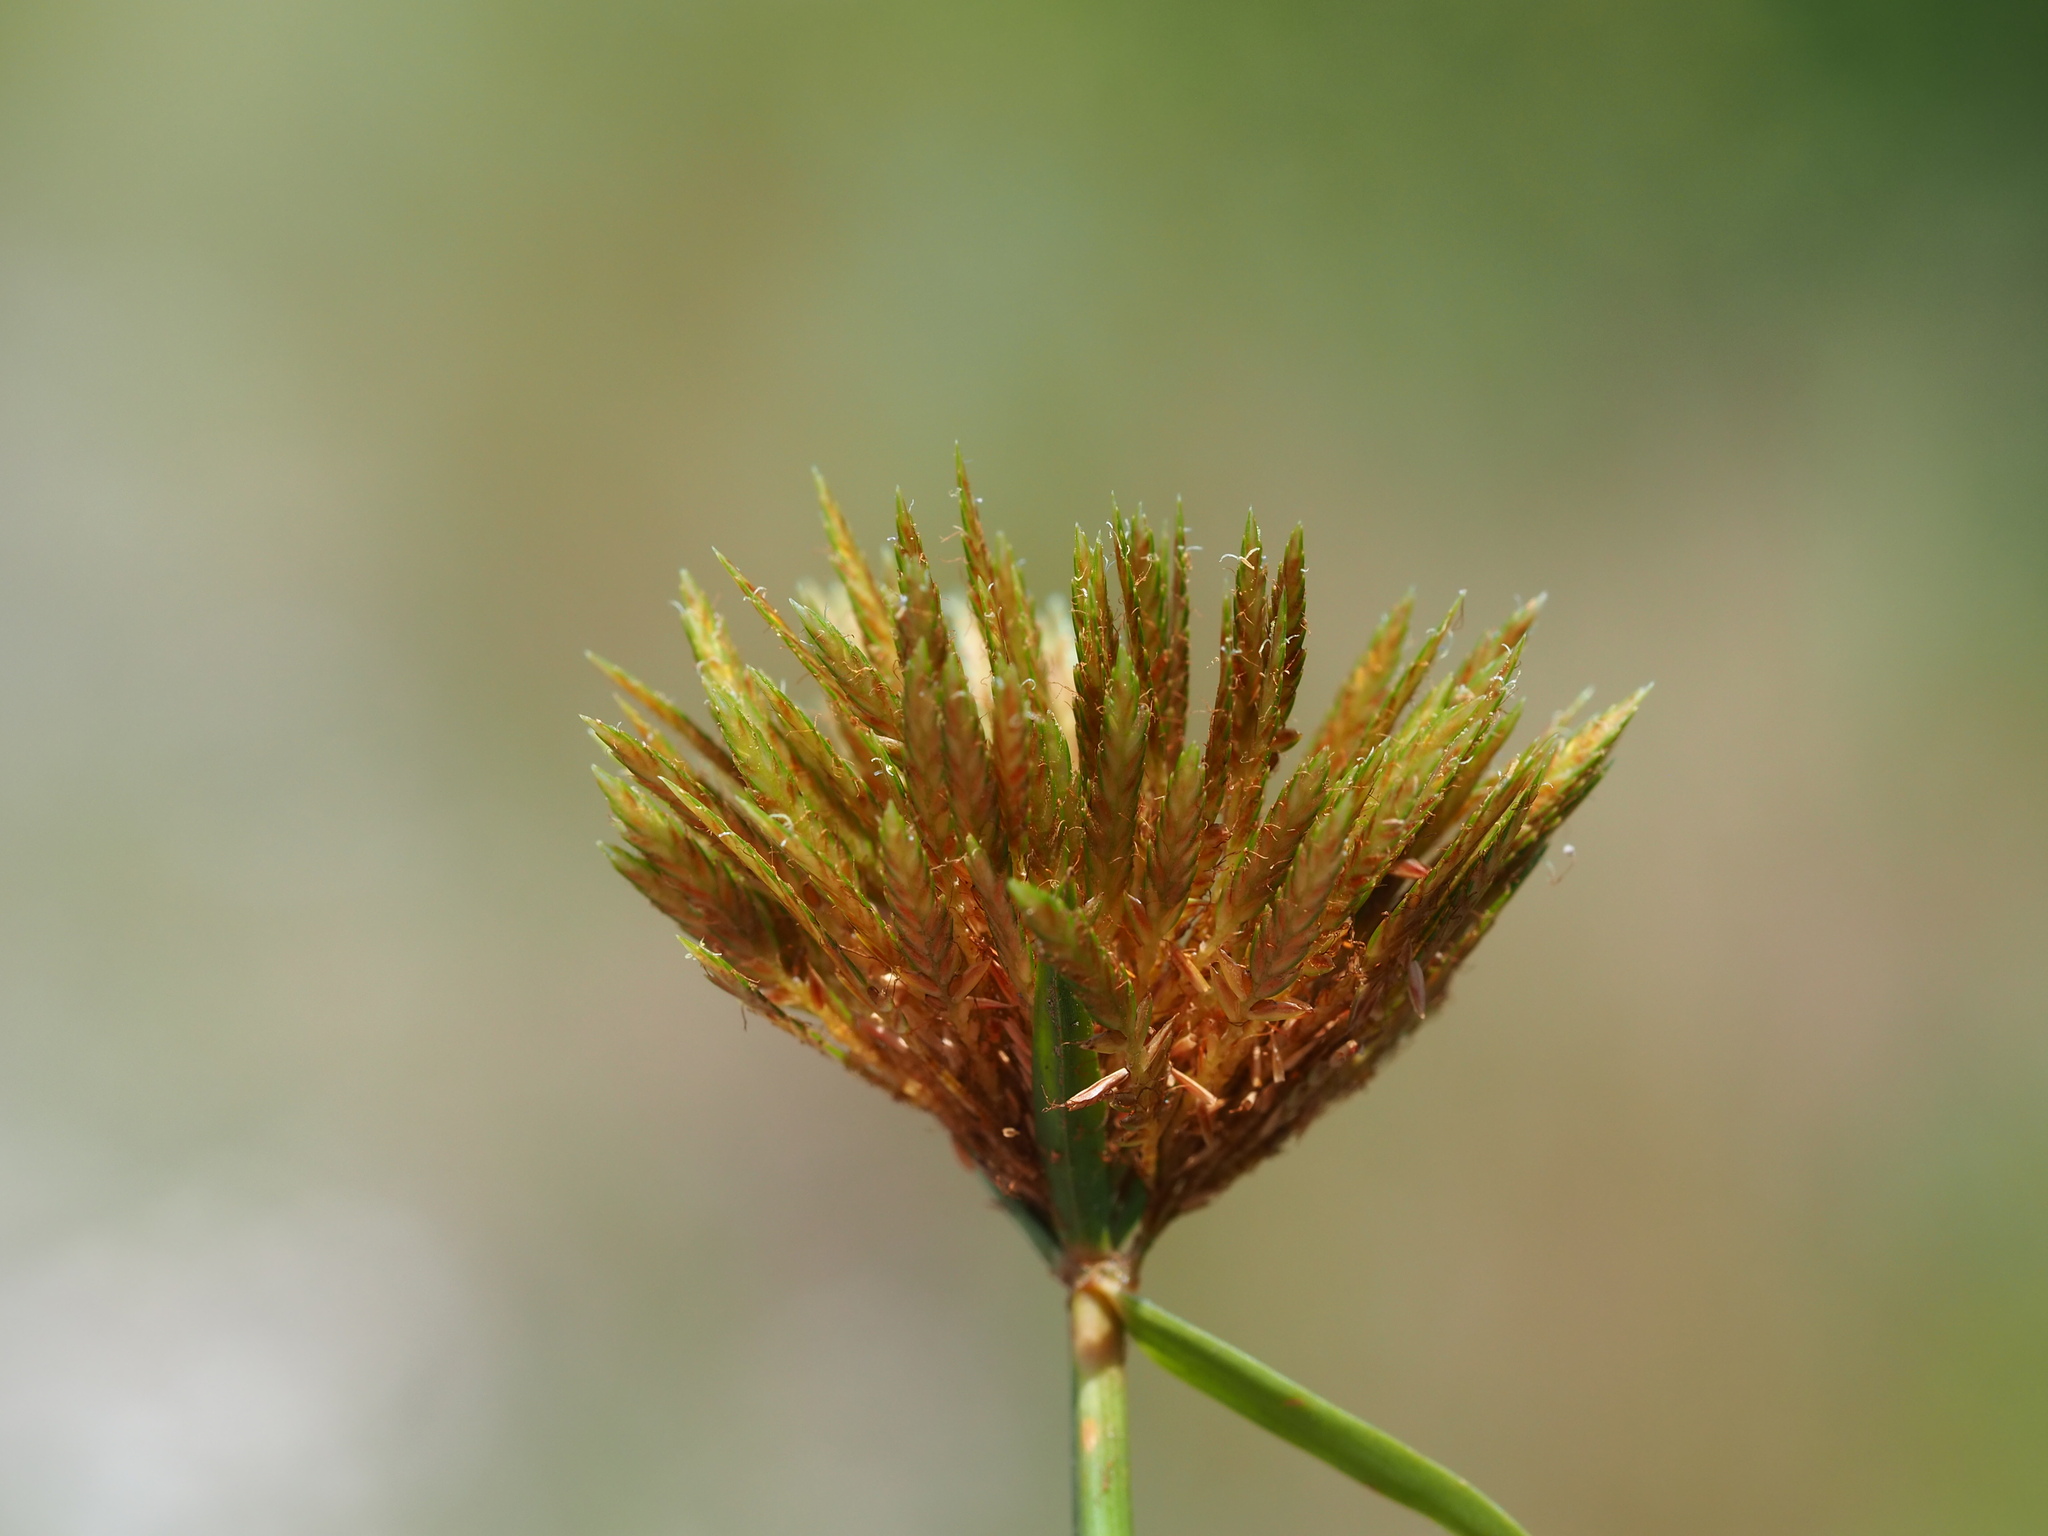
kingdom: Plantae
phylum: Tracheophyta
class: Liliopsida
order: Poales
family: Cyperaceae
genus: Cyperus
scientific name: Cyperus polystachyos
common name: Bunchy flat sedge
